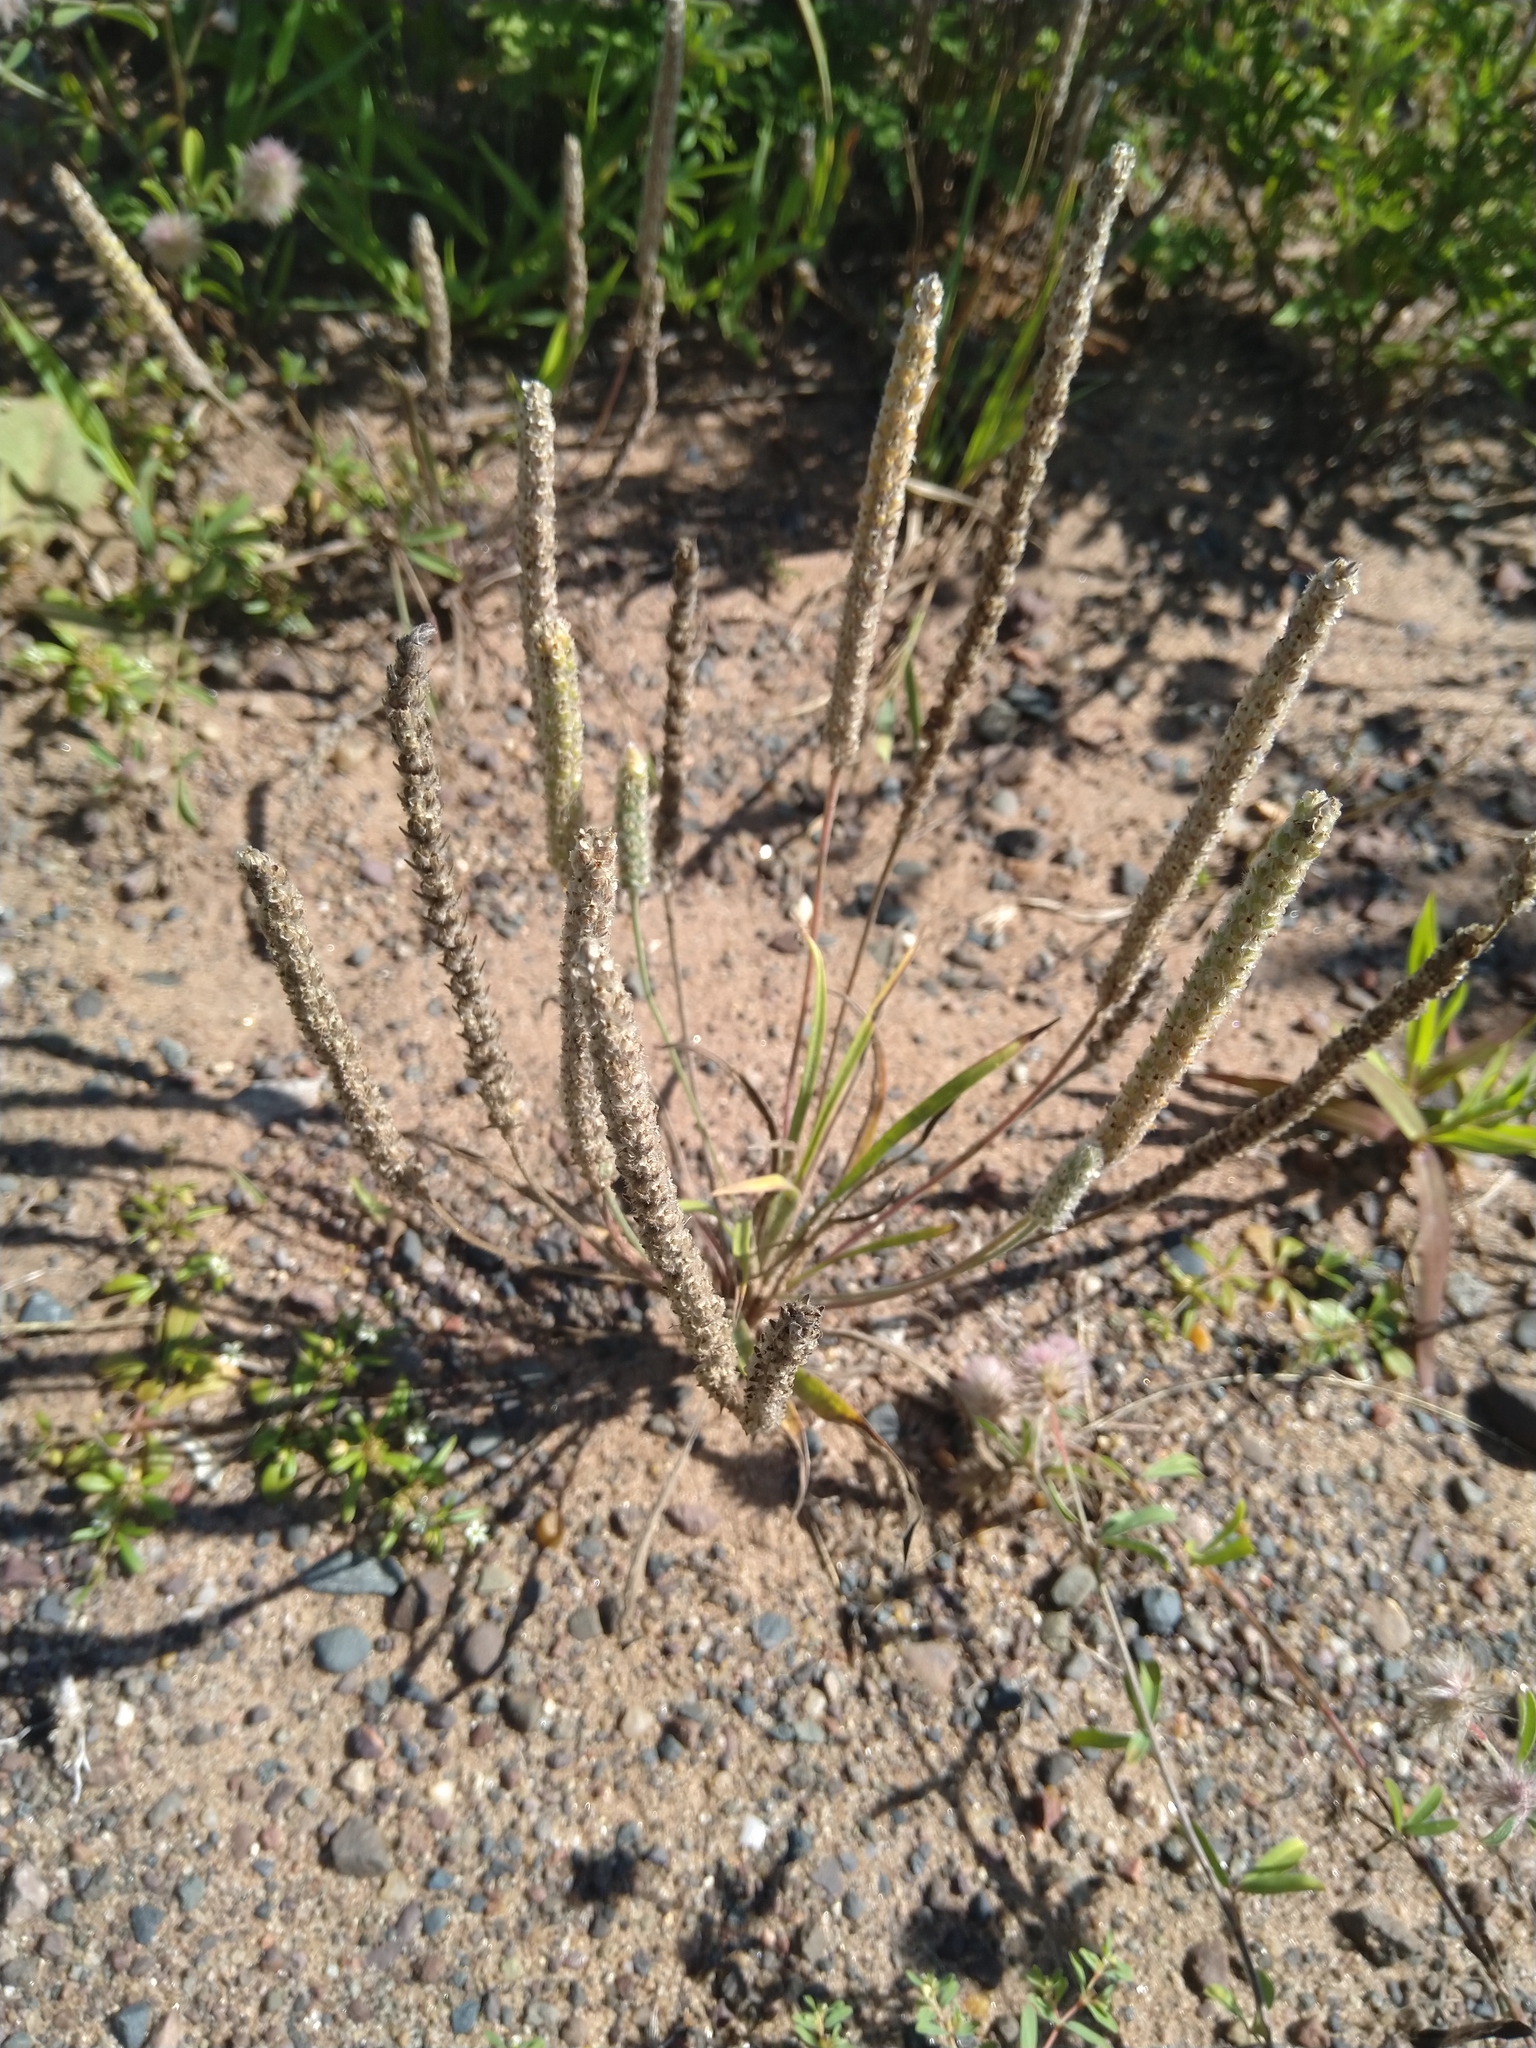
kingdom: Plantae
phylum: Tracheophyta
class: Magnoliopsida
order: Lamiales
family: Plantaginaceae
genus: Plantago
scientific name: Plantago patagonica
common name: Patagonia indian-wheat
